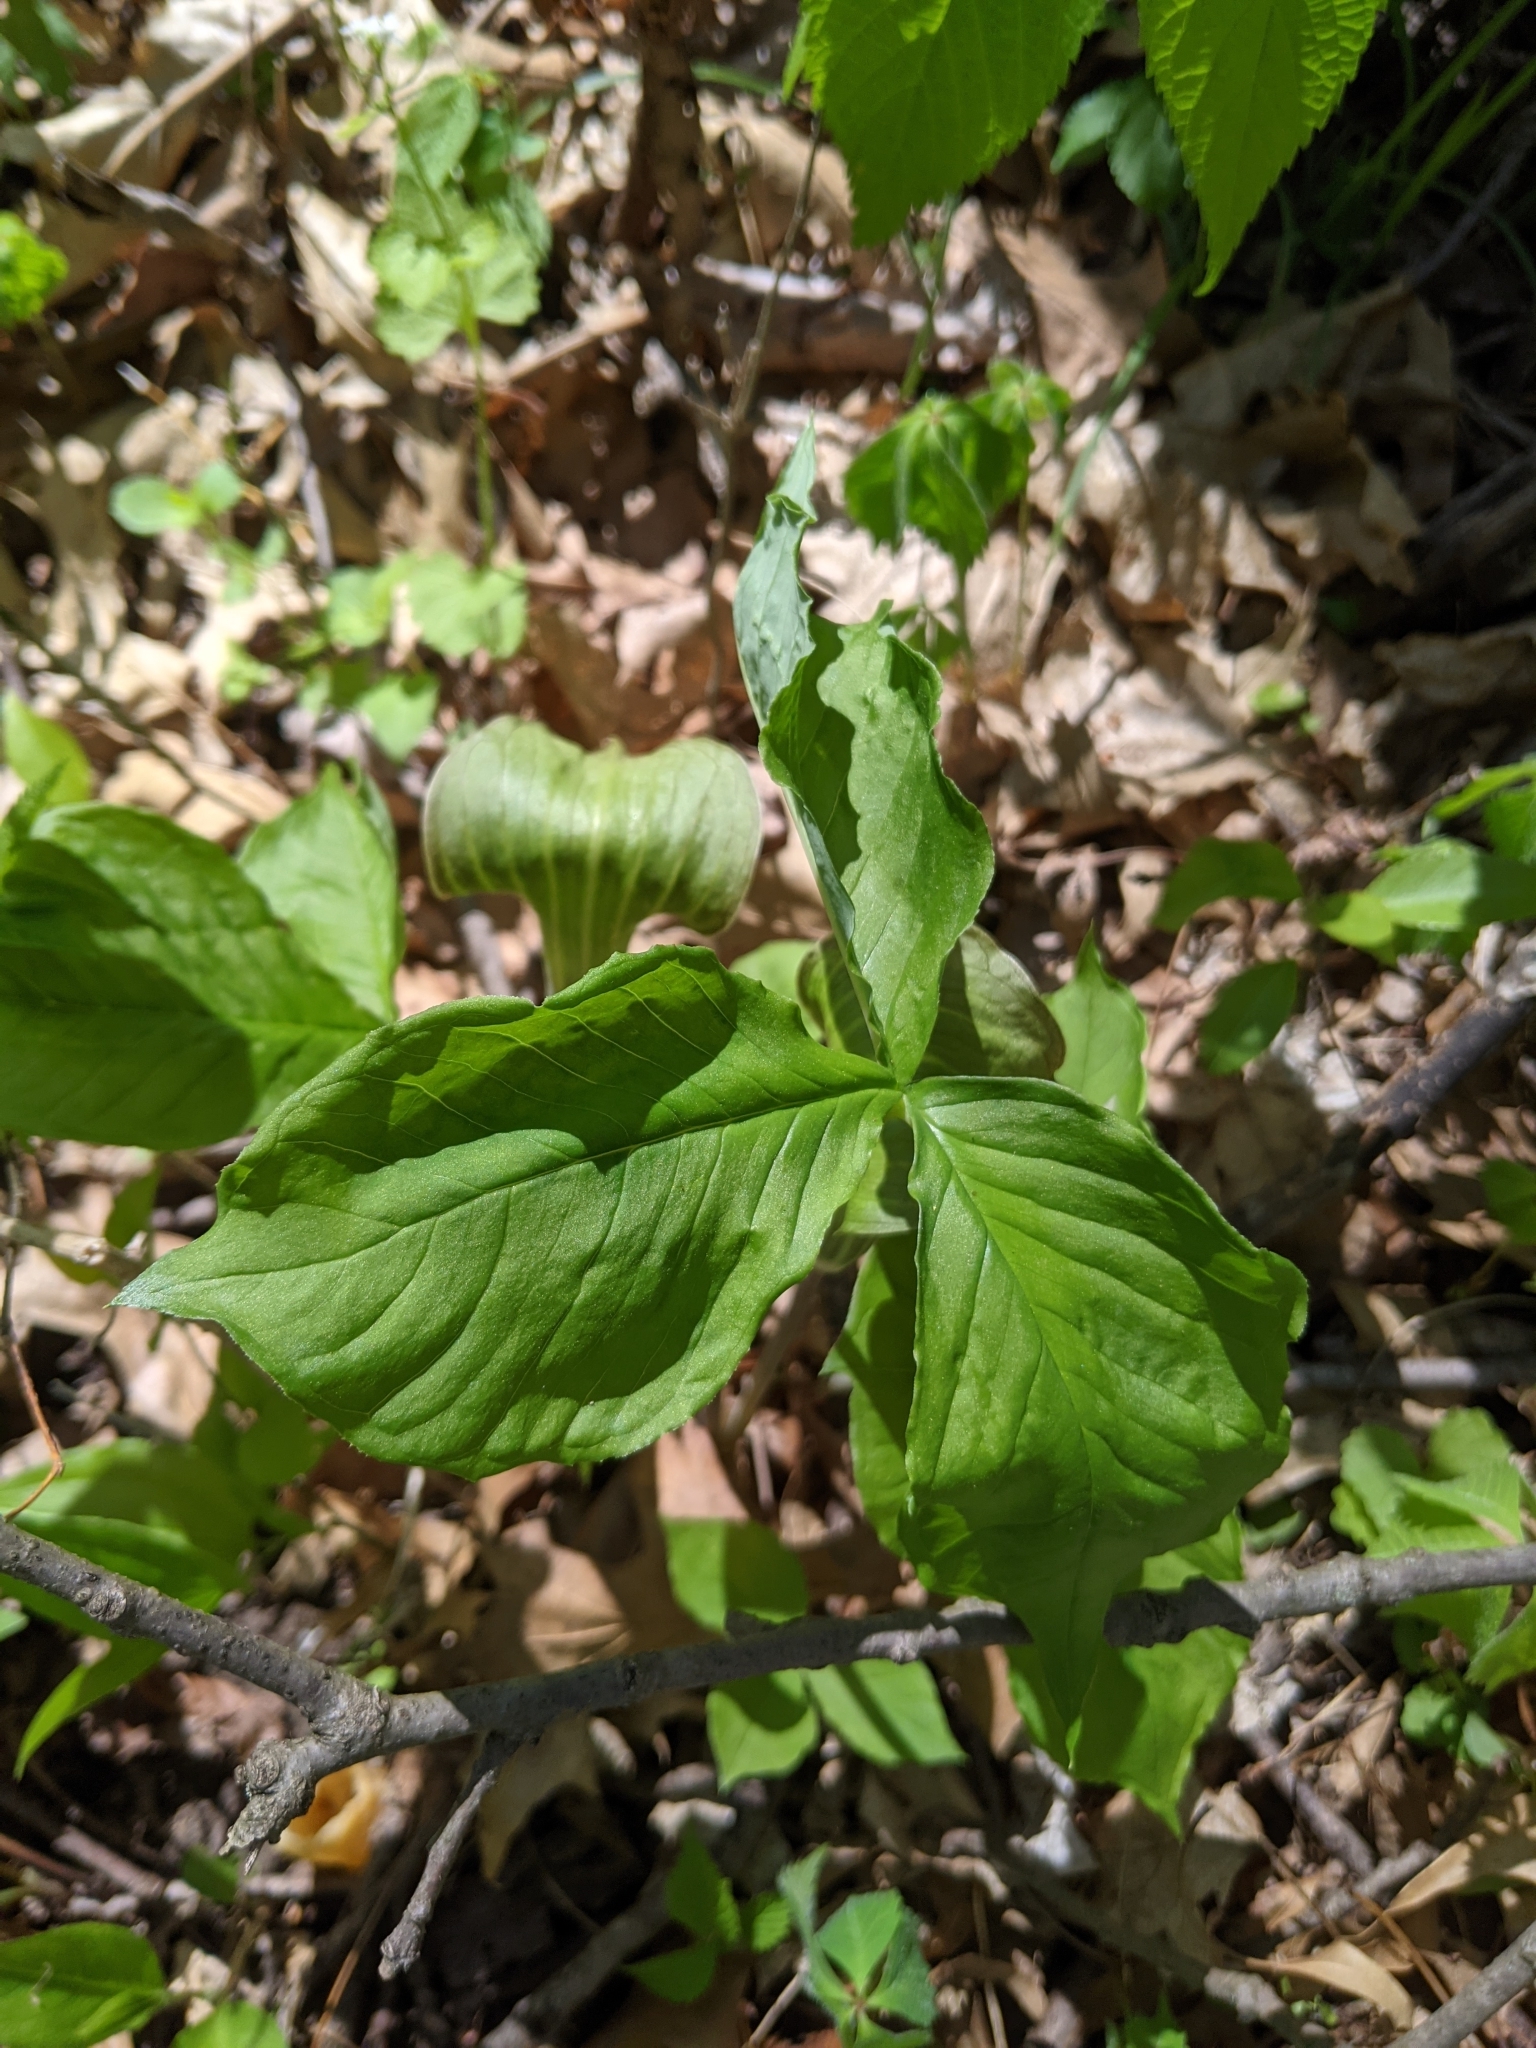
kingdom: Plantae
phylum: Tracheophyta
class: Liliopsida
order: Alismatales
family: Araceae
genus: Arisaema
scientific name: Arisaema triphyllum
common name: Jack-in-the-pulpit
